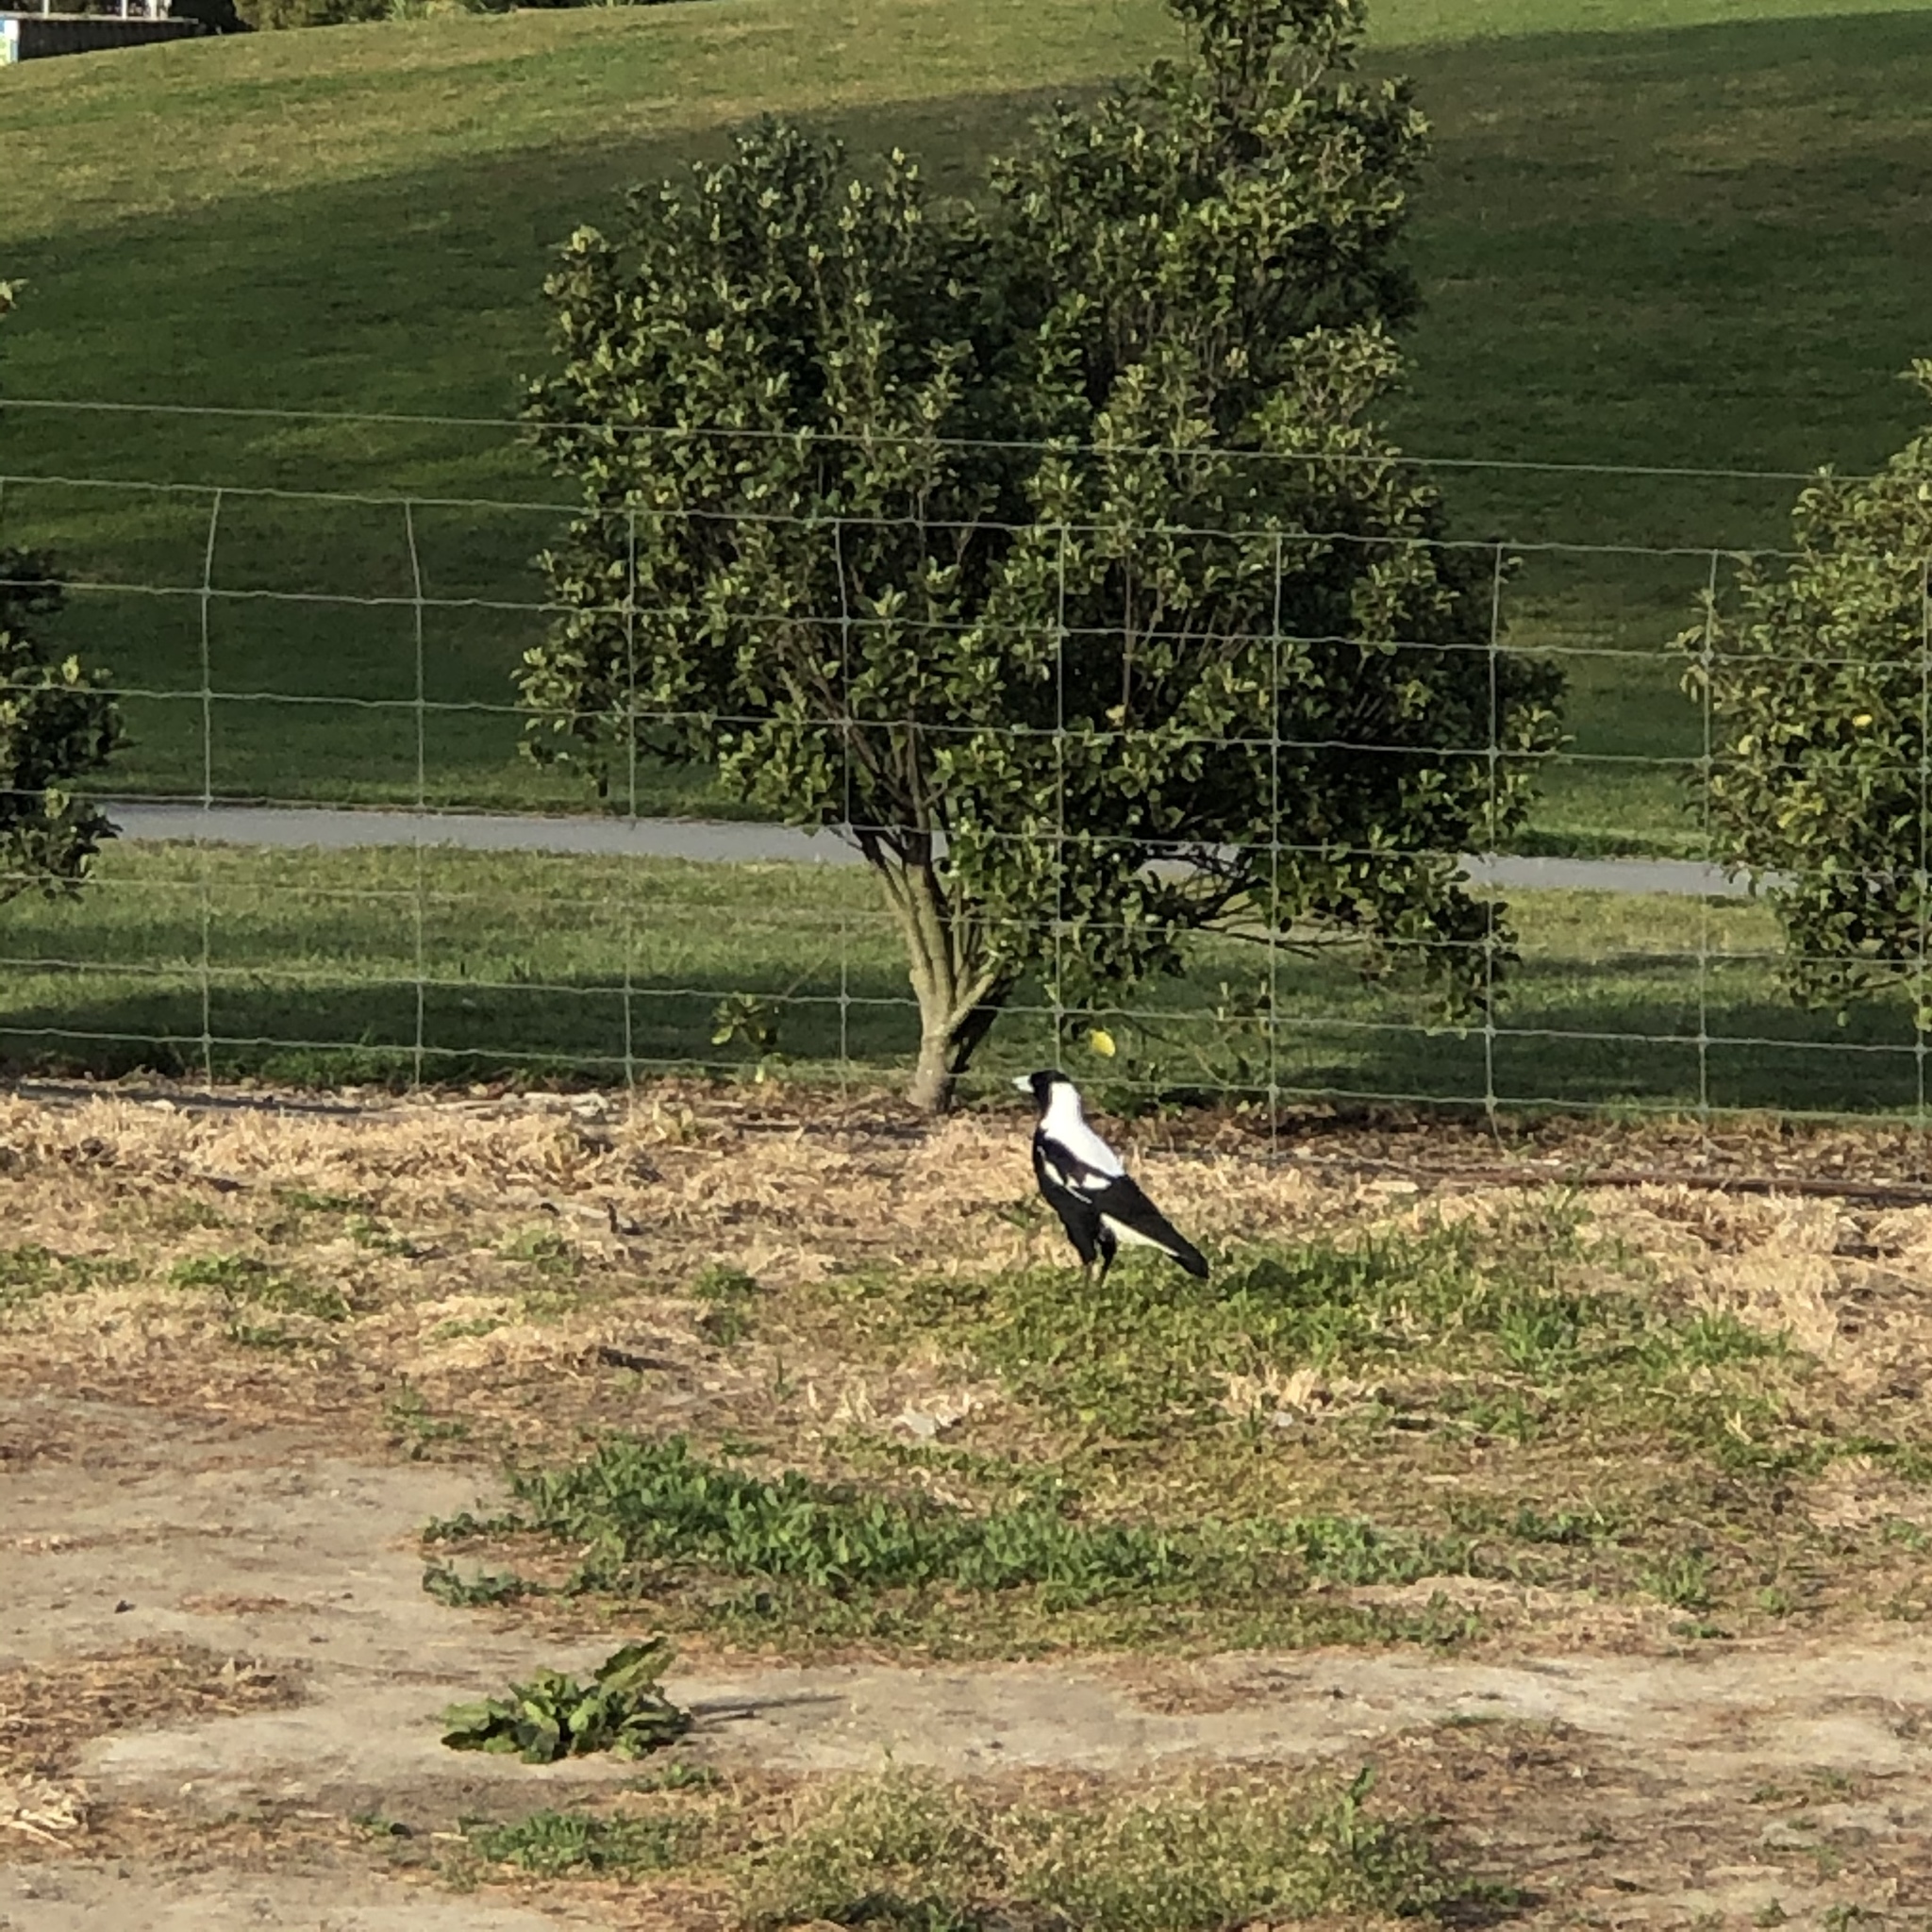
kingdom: Animalia
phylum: Chordata
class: Aves
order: Passeriformes
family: Cracticidae
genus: Gymnorhina
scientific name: Gymnorhina tibicen
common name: Australian magpie
